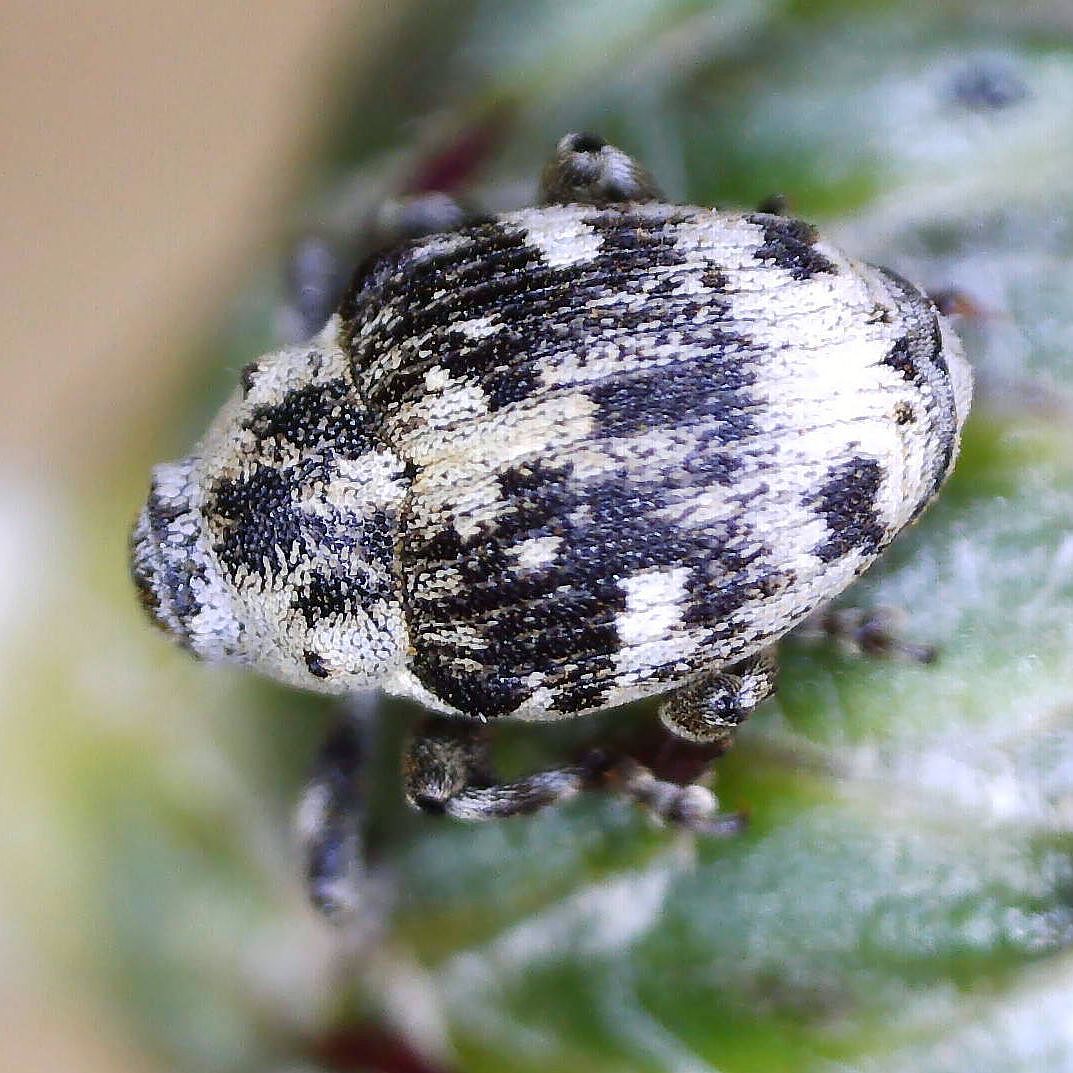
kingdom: Animalia
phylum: Arthropoda
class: Insecta
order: Coleoptera
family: Curculionidae
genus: Hadroplontus
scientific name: Hadroplontus litura
